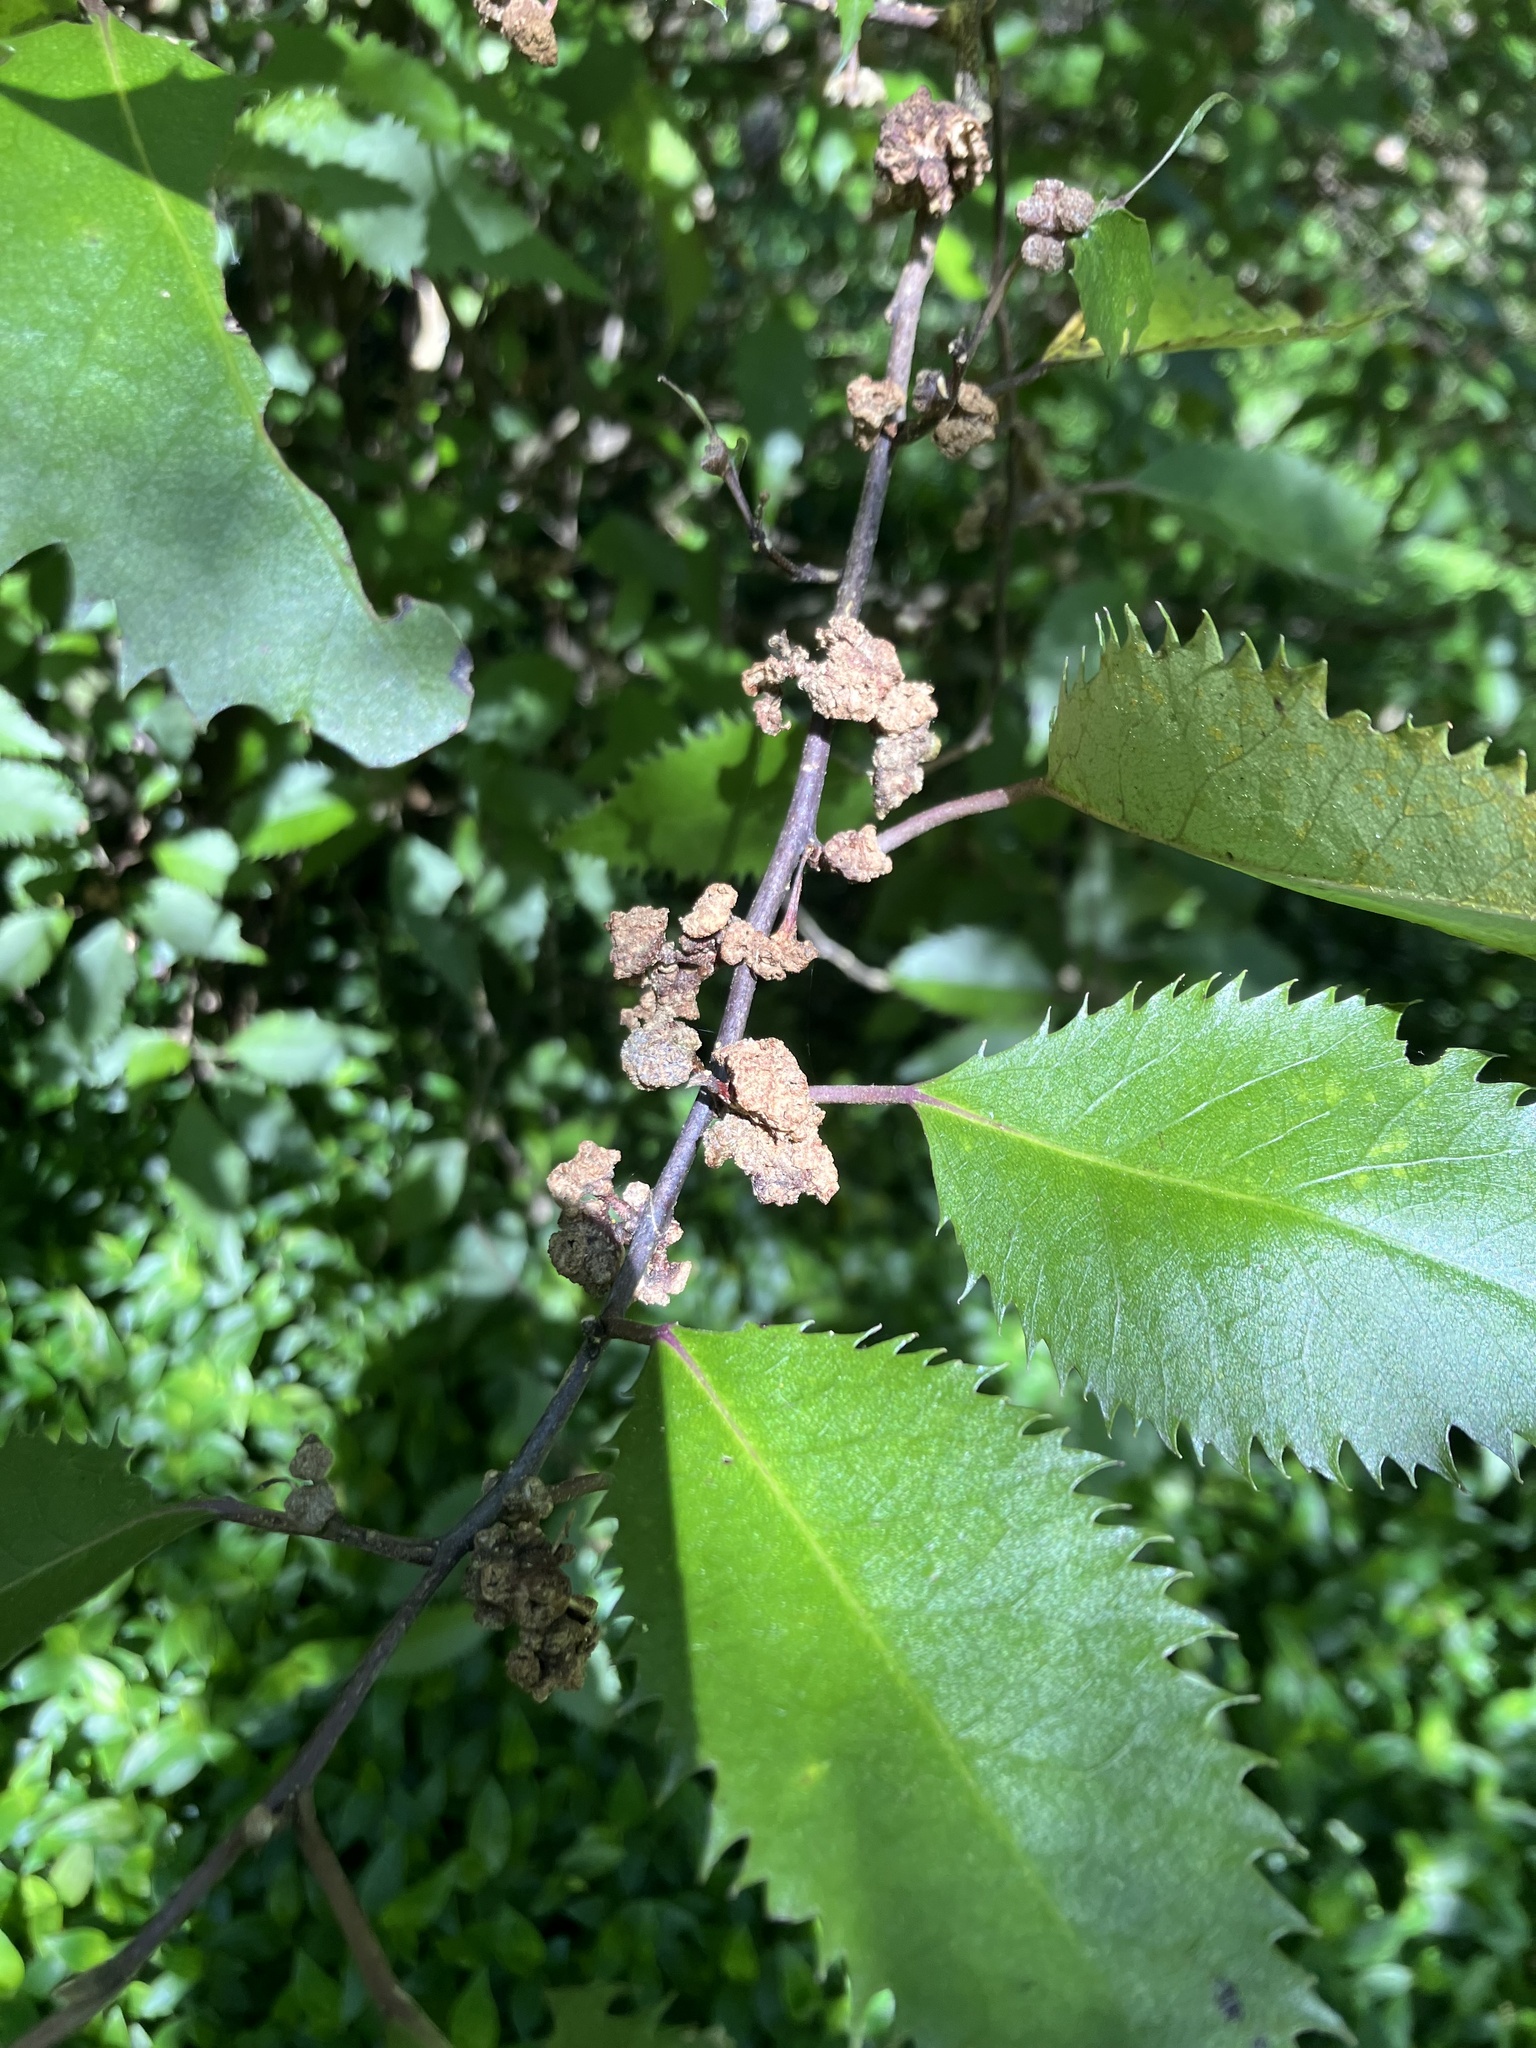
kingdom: Plantae
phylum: Tracheophyta
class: Magnoliopsida
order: Malvales
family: Malvaceae
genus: Hoheria
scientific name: Hoheria sexstylosa
